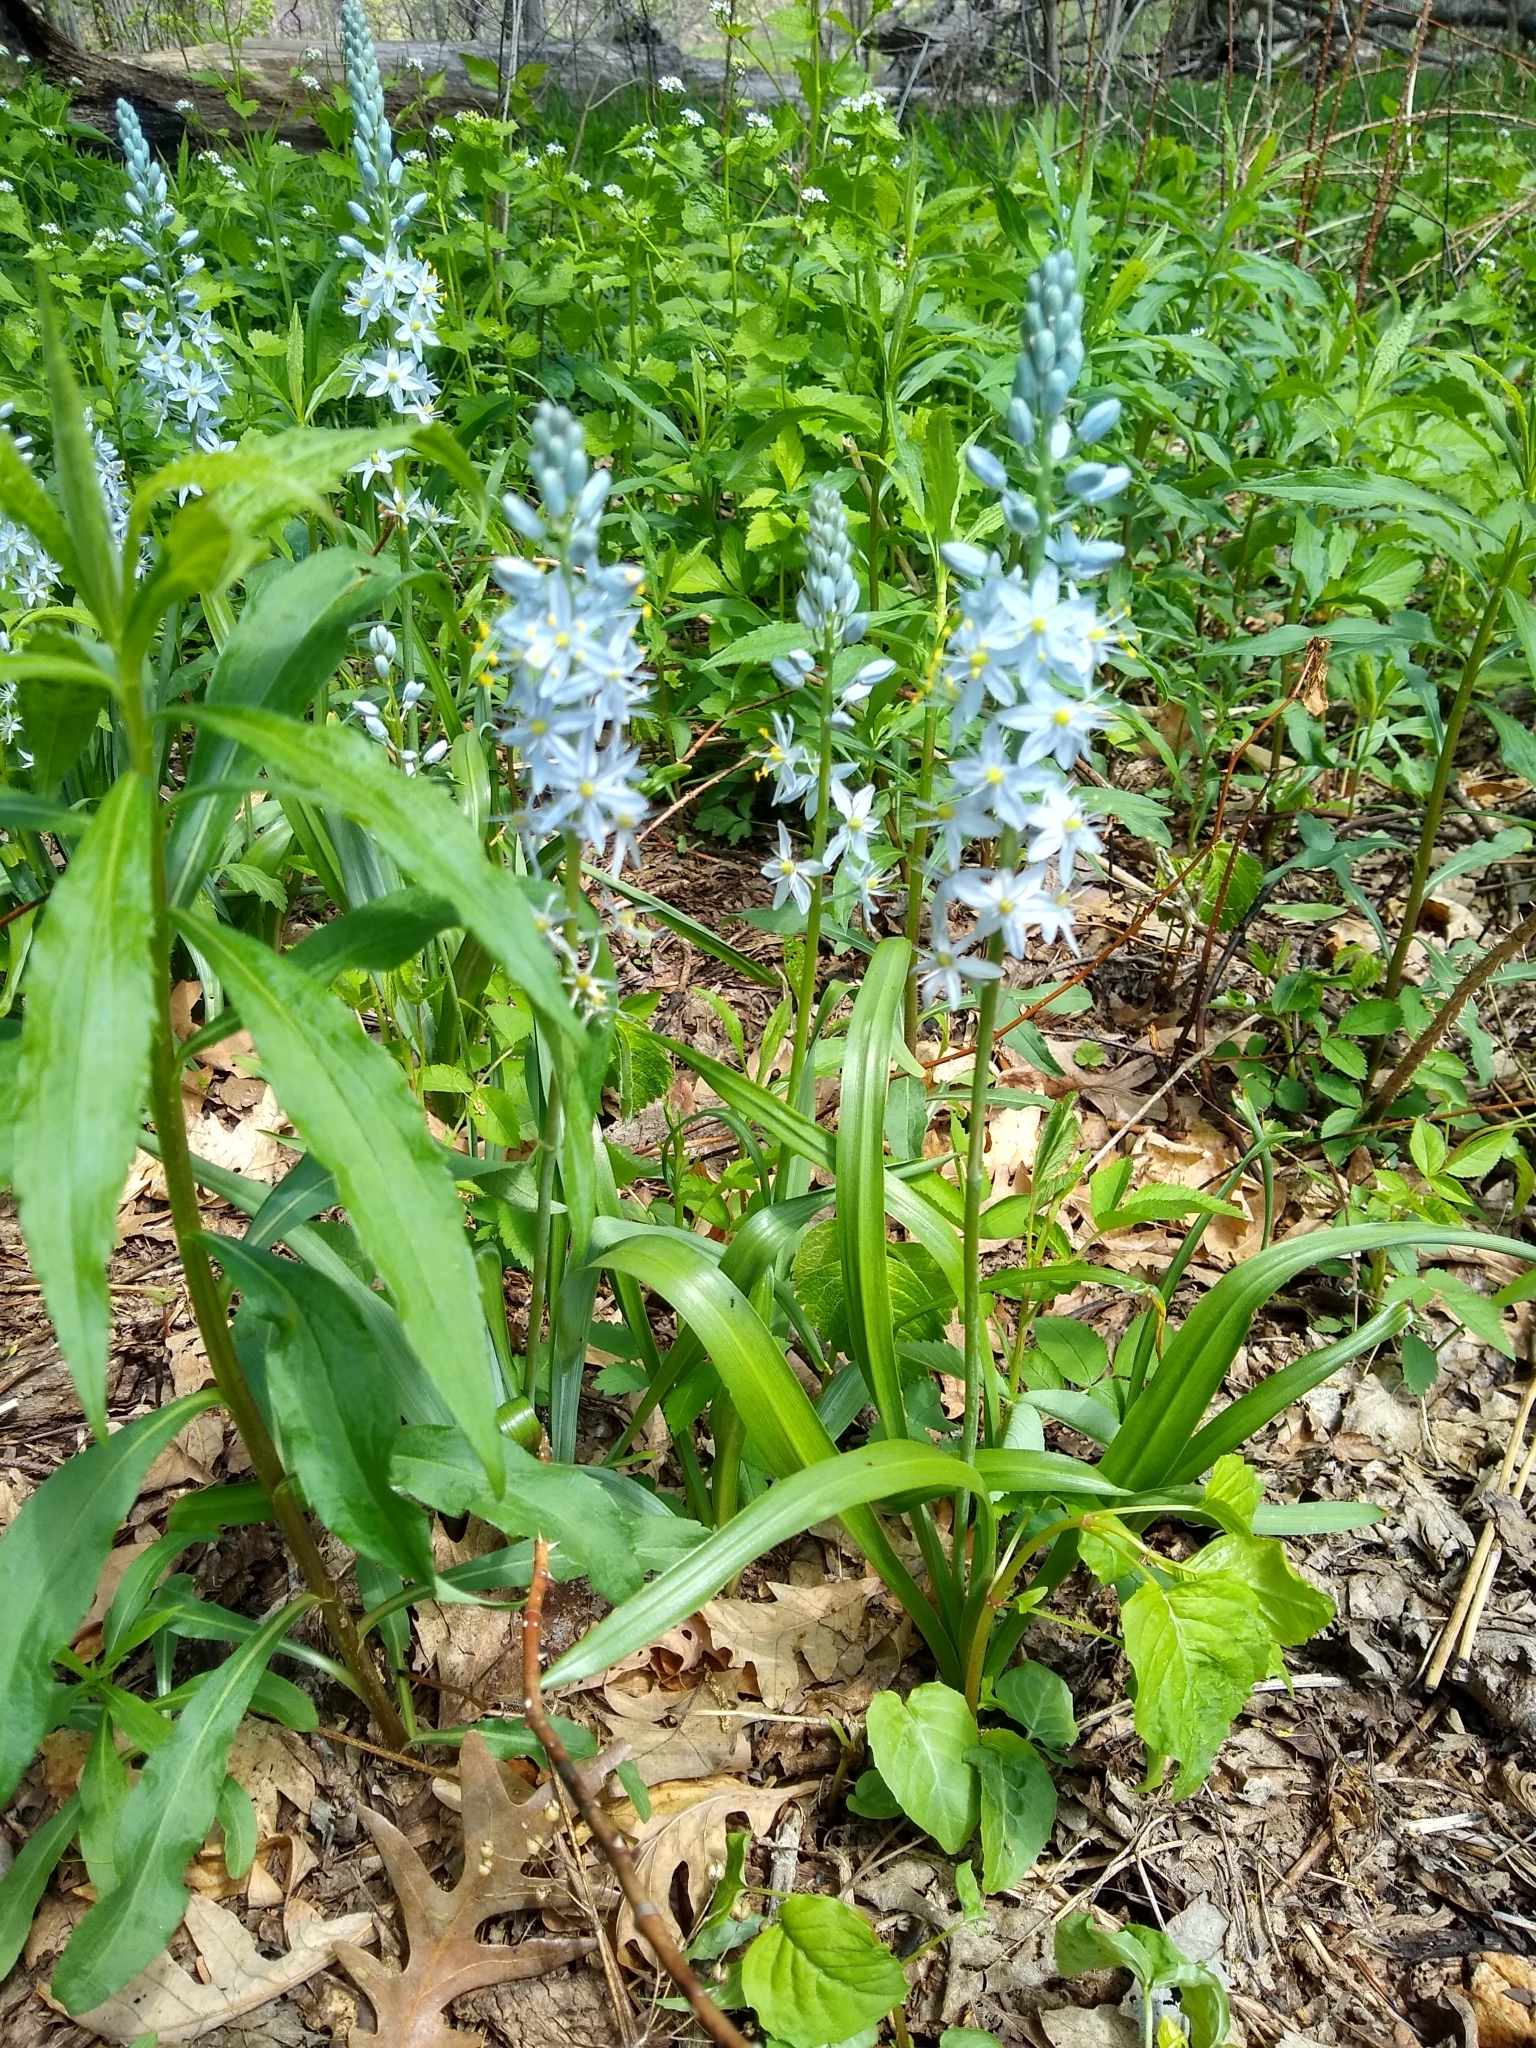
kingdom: Plantae
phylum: Tracheophyta
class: Liliopsida
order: Asparagales
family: Asparagaceae
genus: Camassia
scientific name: Camassia scilloides
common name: Wild hyacinth
